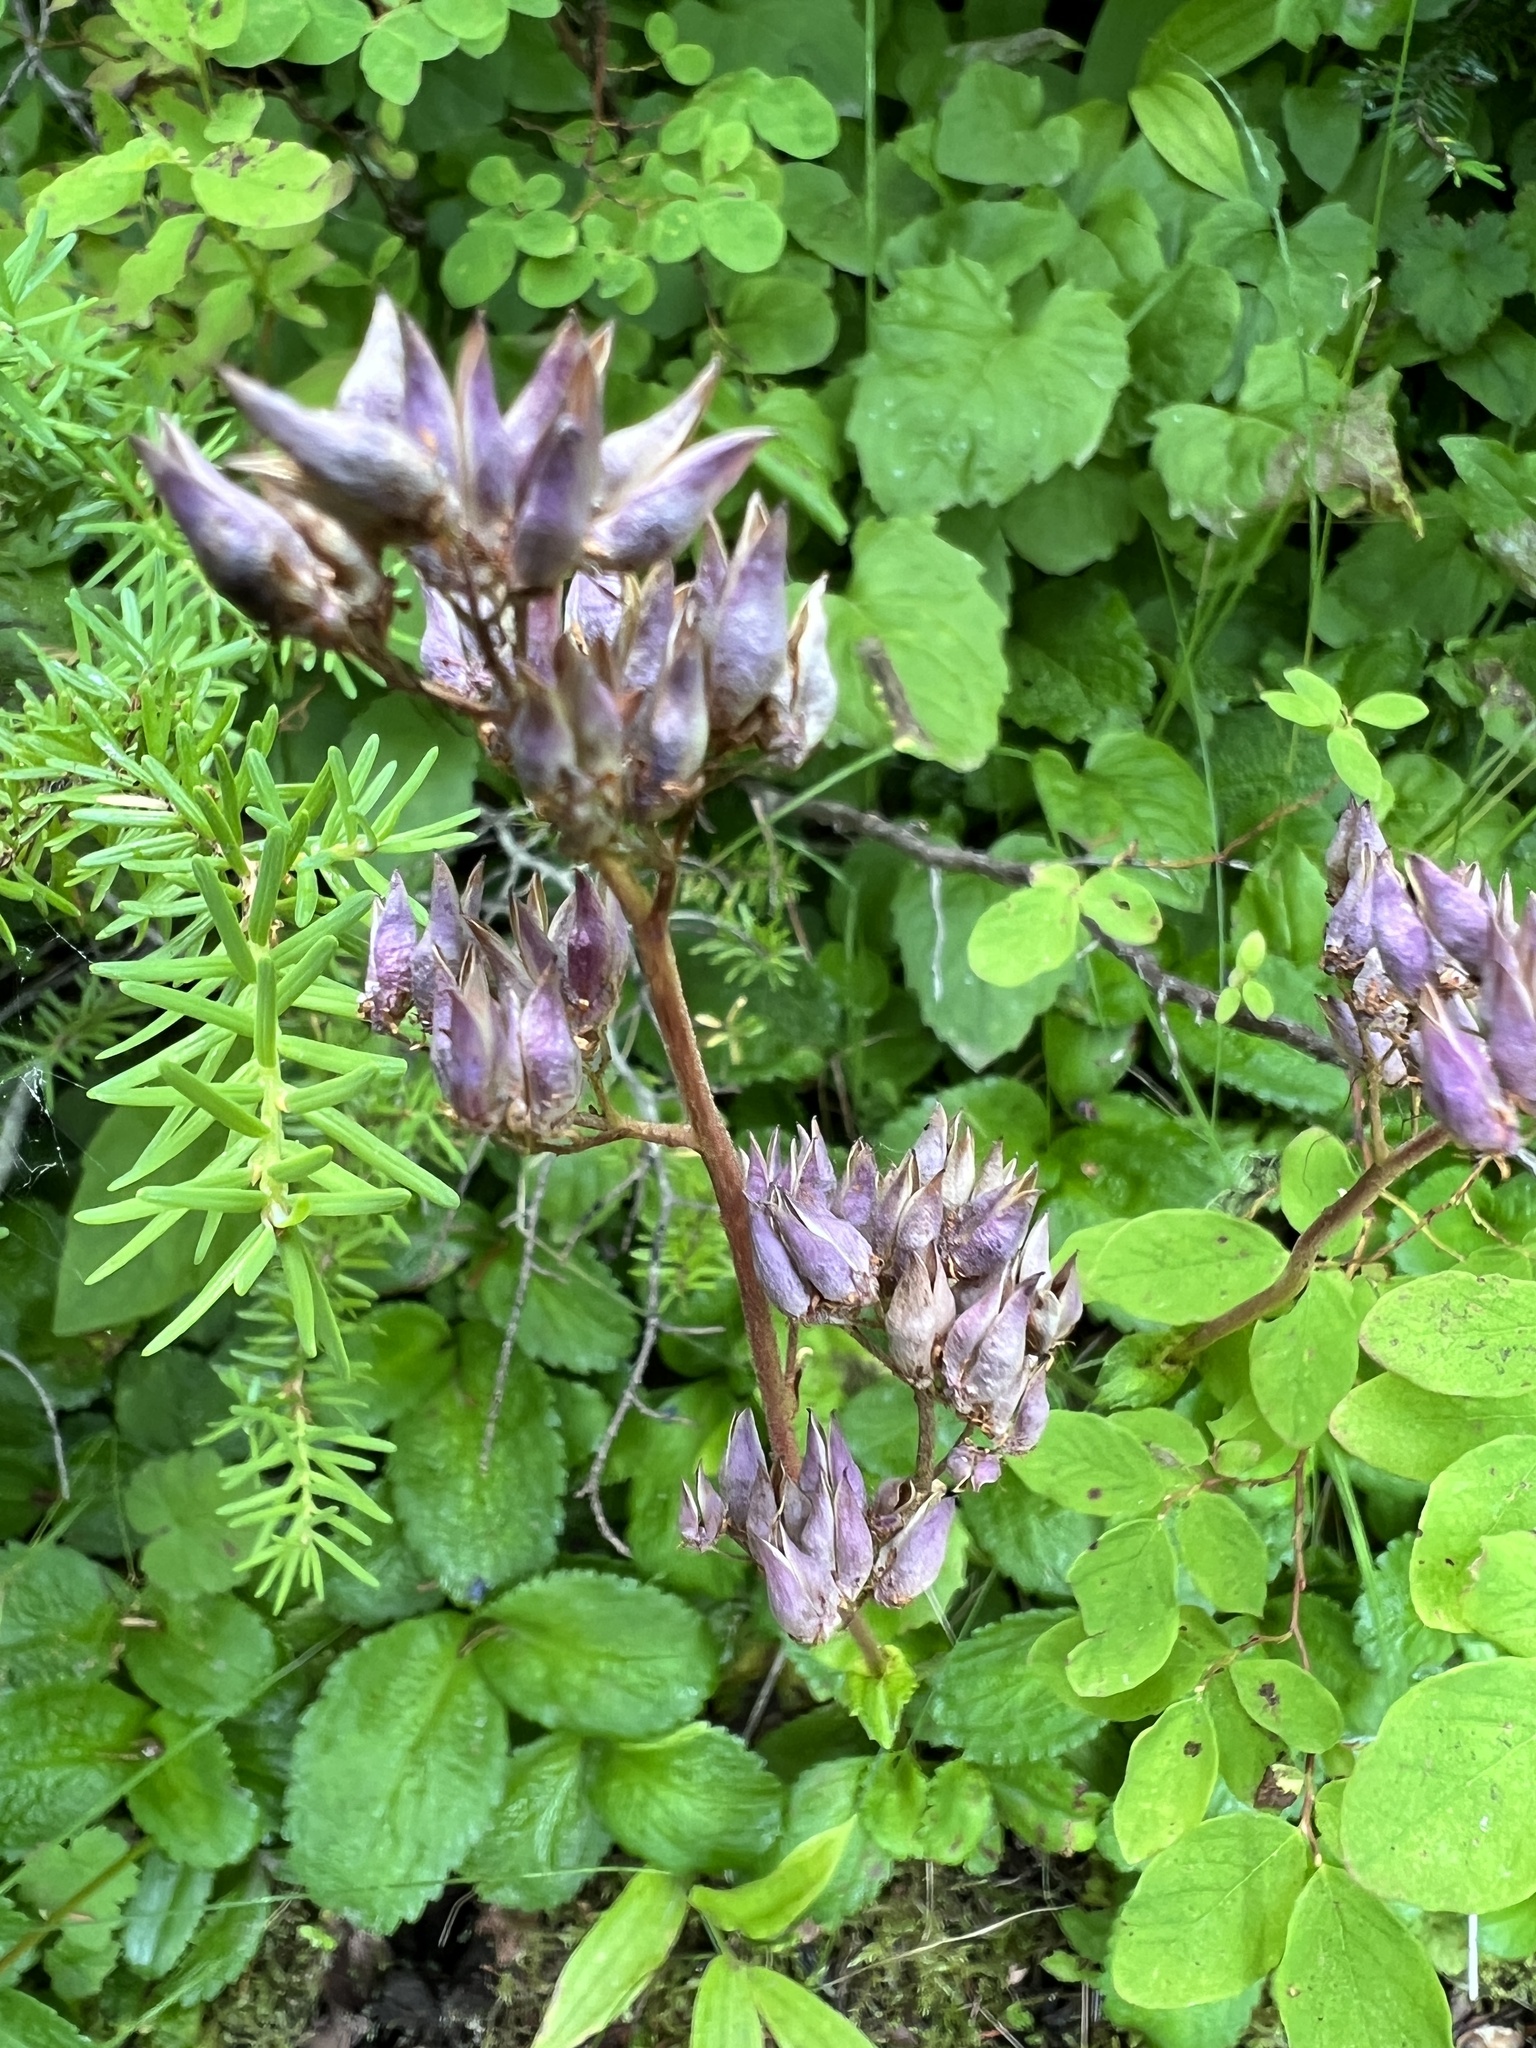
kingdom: Plantae
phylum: Tracheophyta
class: Magnoliopsida
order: Saxifragales
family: Saxifragaceae
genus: Leptarrhena
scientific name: Leptarrhena pyrolifolia
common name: Leatherleaf-saxifrage
